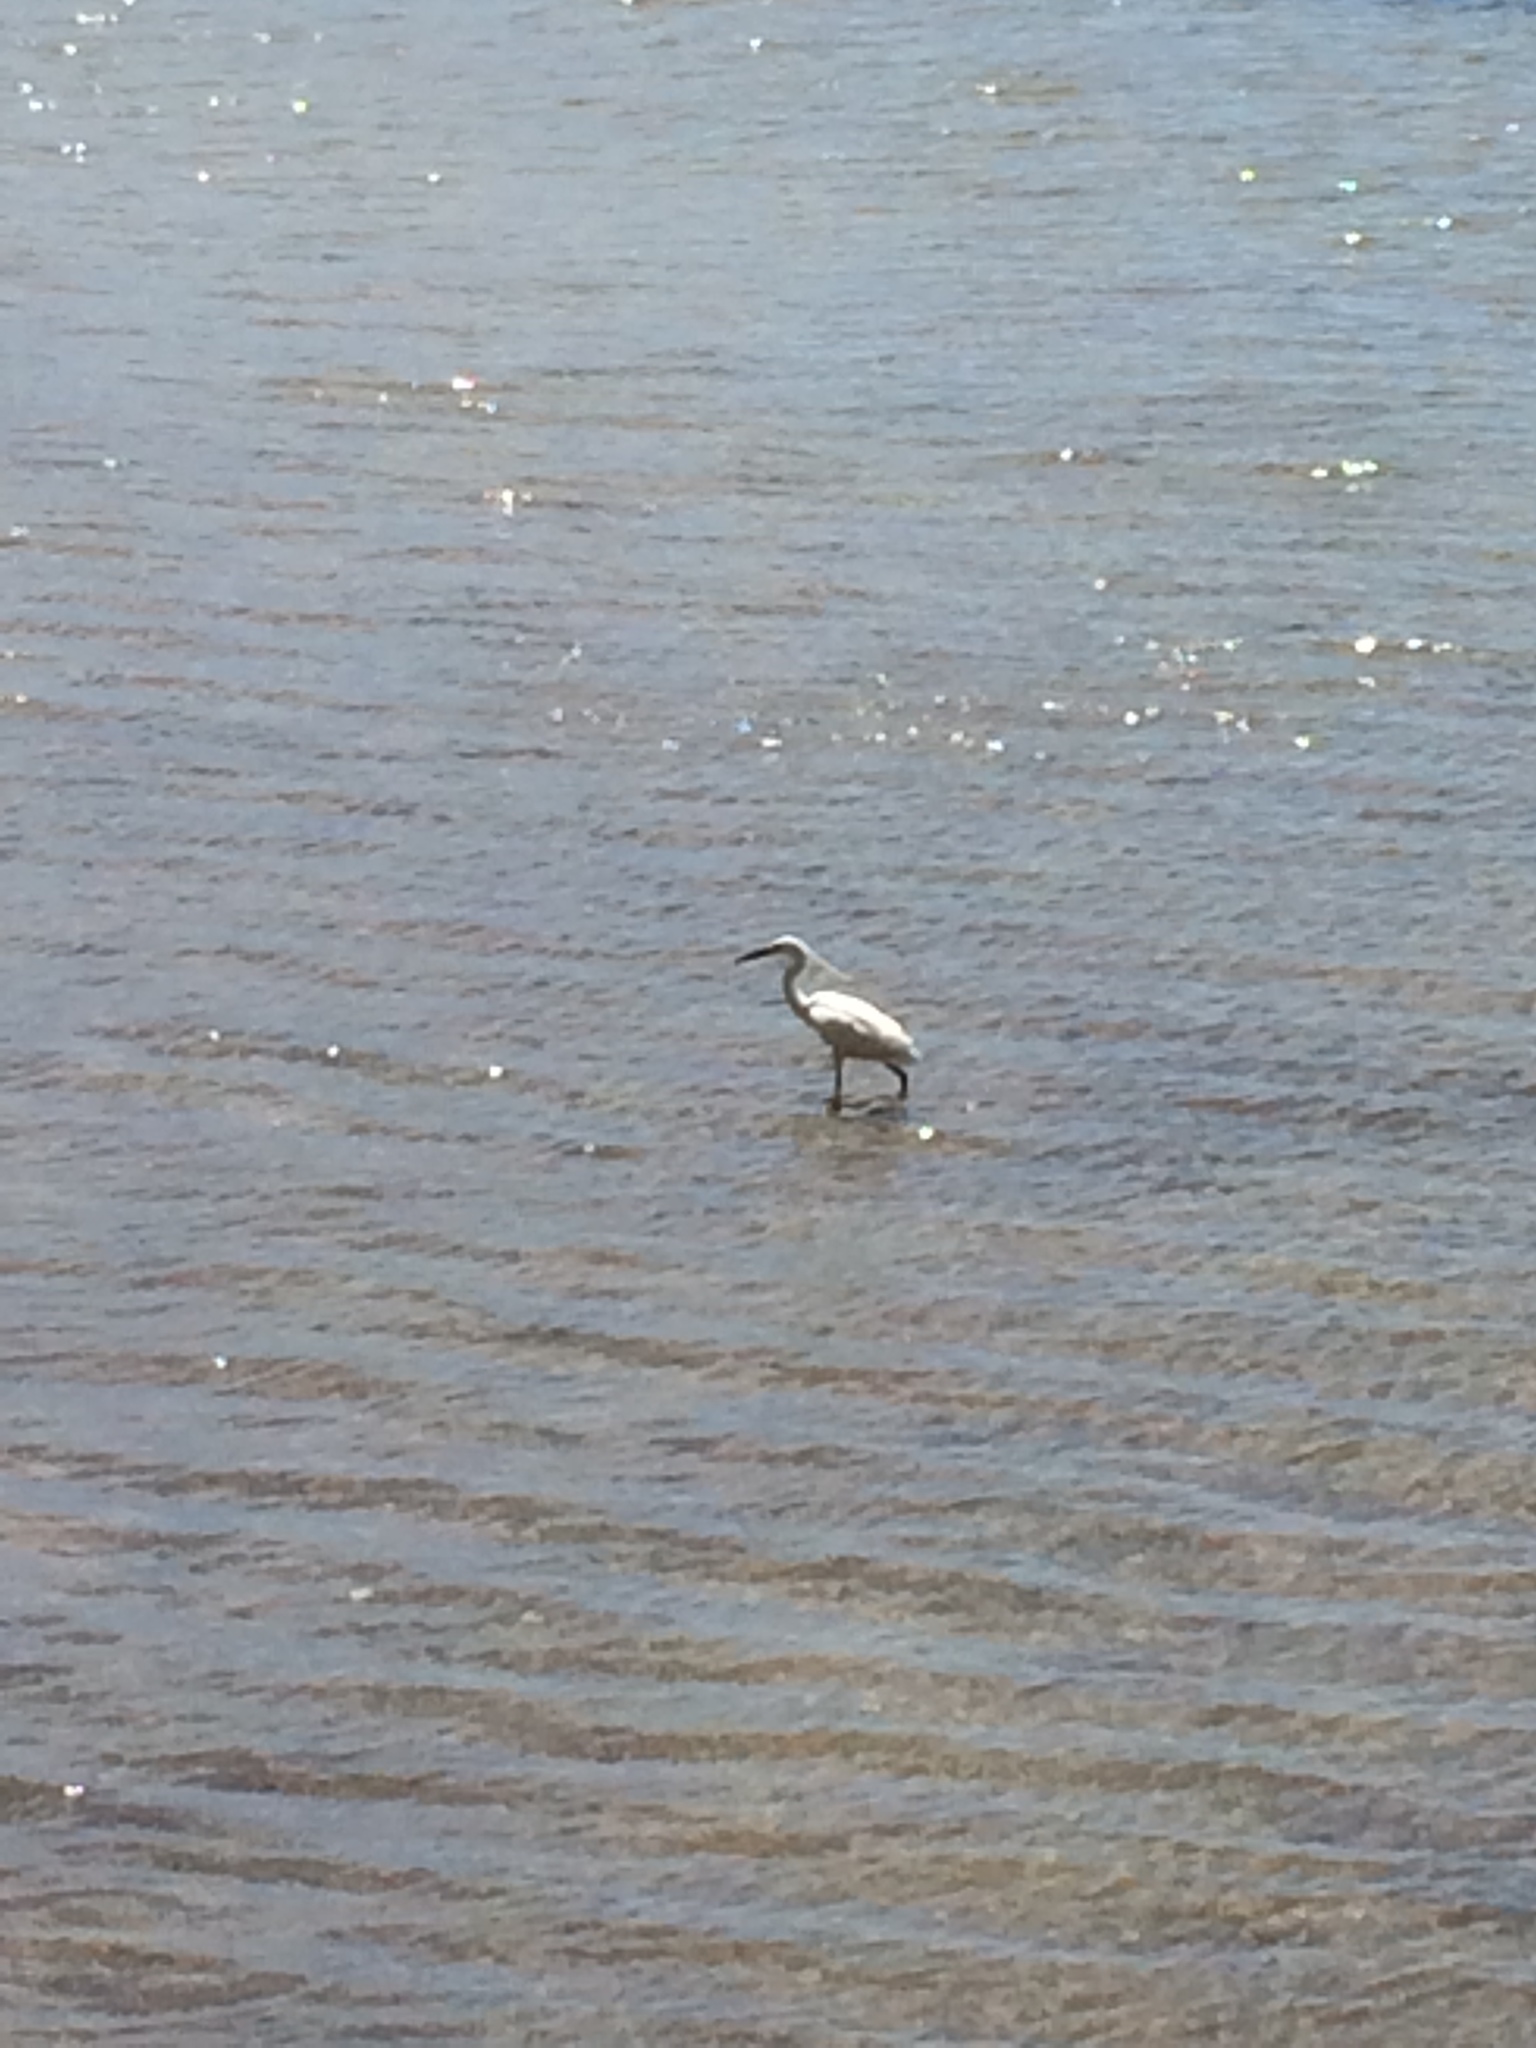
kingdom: Animalia
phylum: Chordata
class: Aves
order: Pelecaniformes
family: Ardeidae
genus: Egretta
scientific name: Egretta garzetta
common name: Little egret
